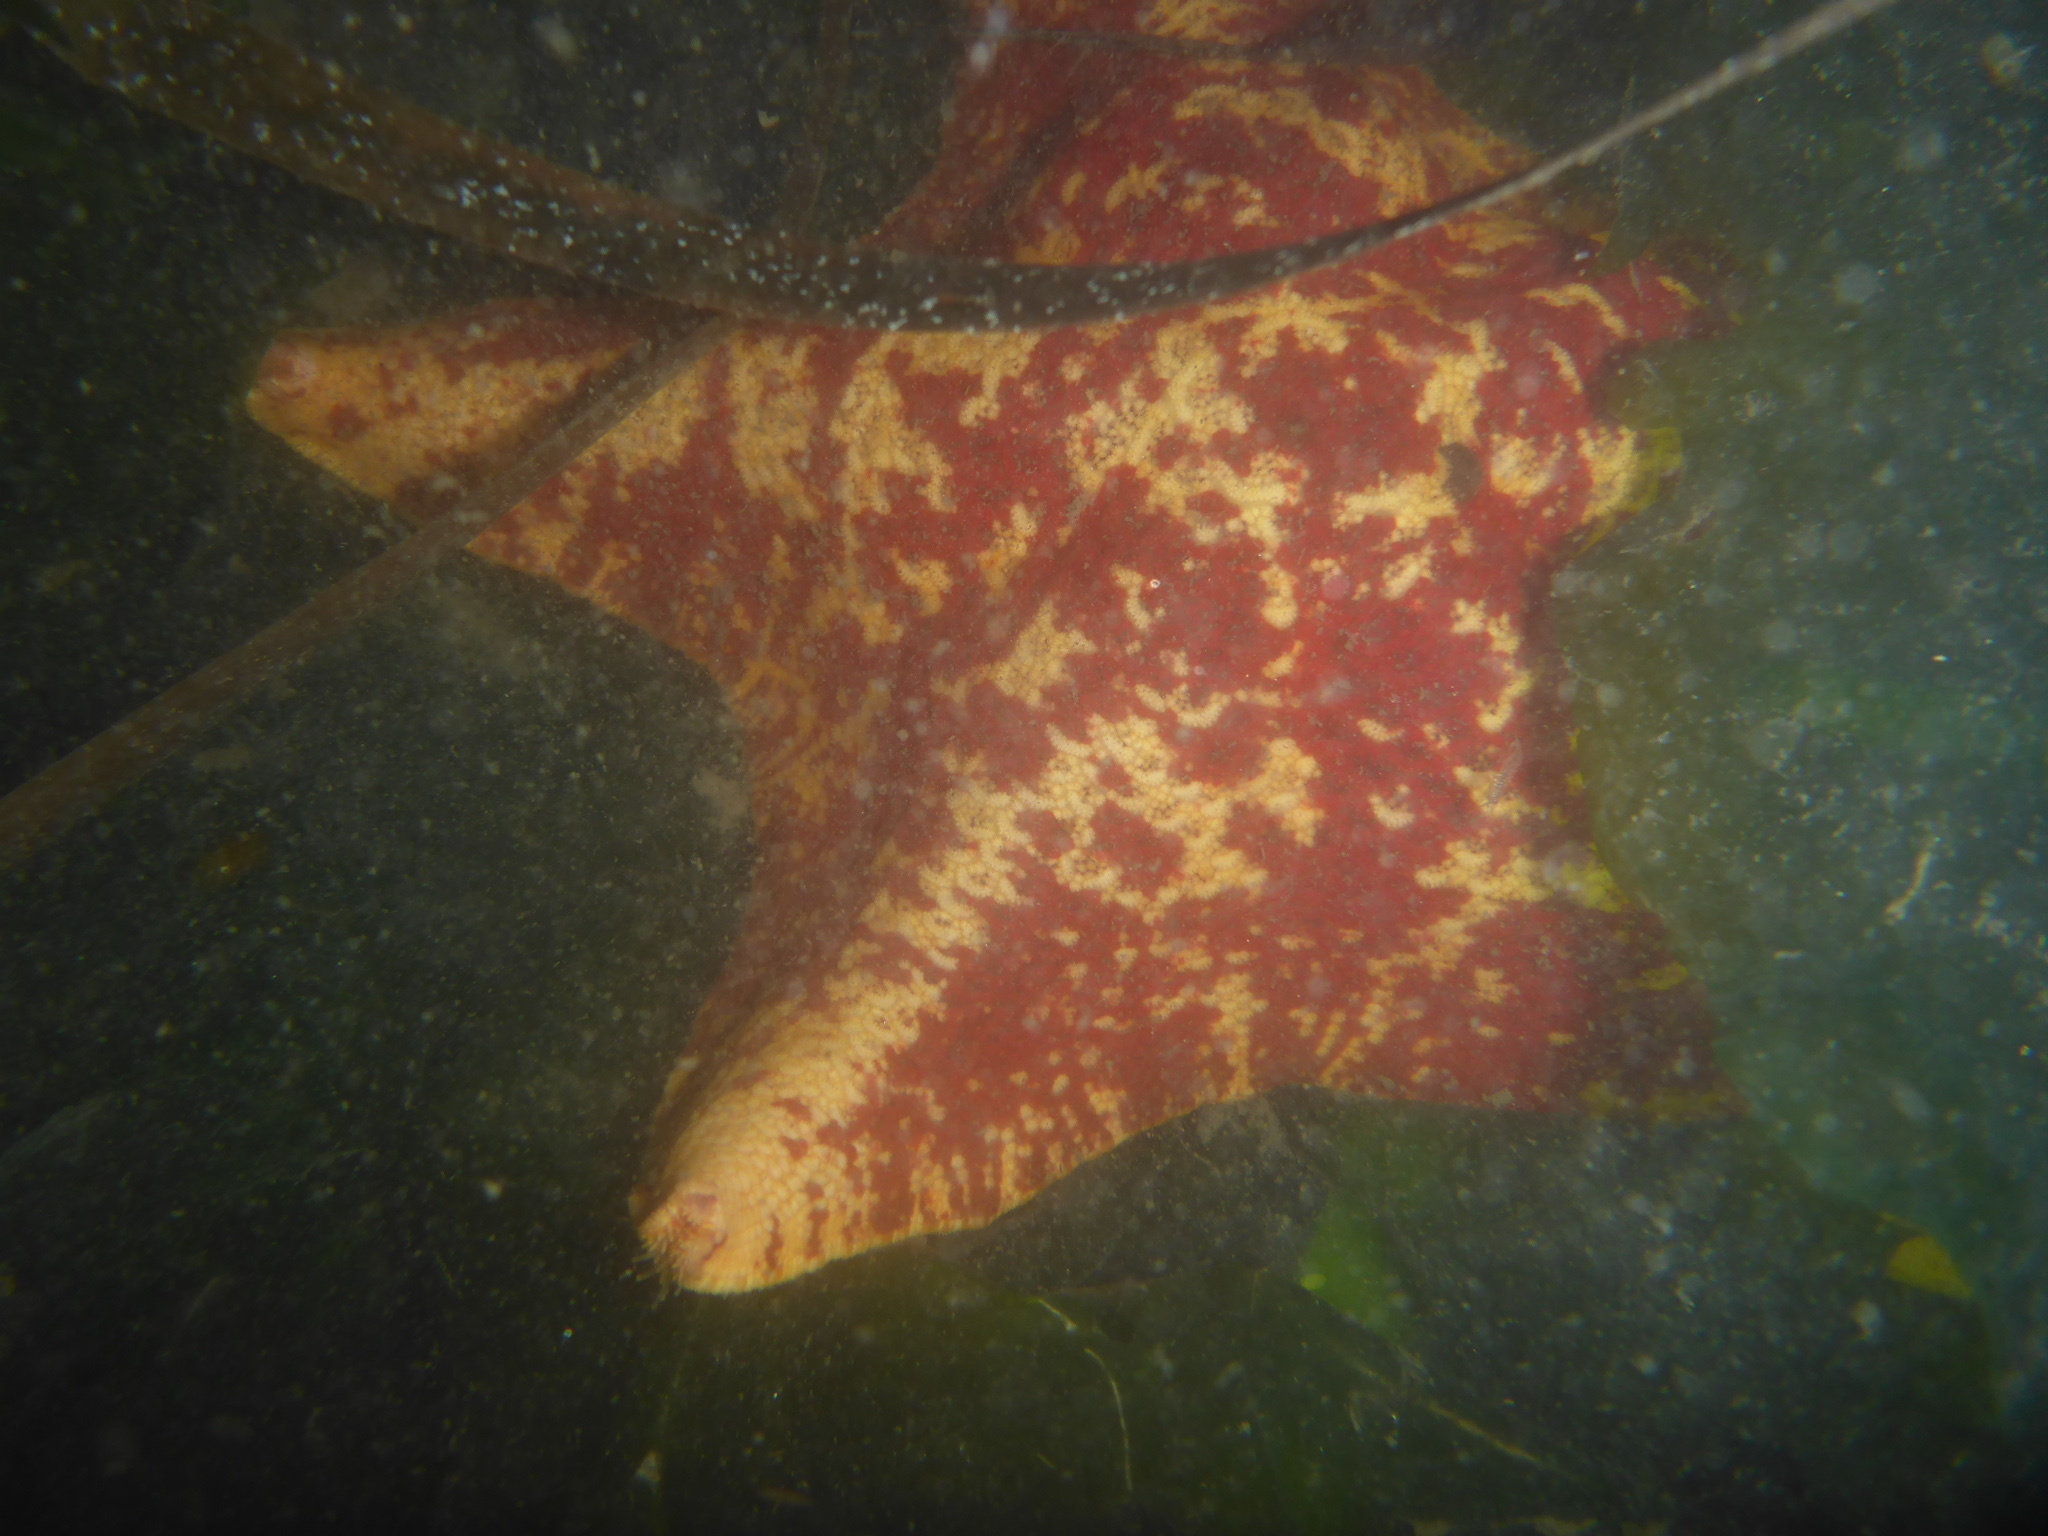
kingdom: Animalia
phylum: Echinodermata
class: Asteroidea
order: Valvatida
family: Asterinidae
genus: Patiria
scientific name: Patiria miniata
